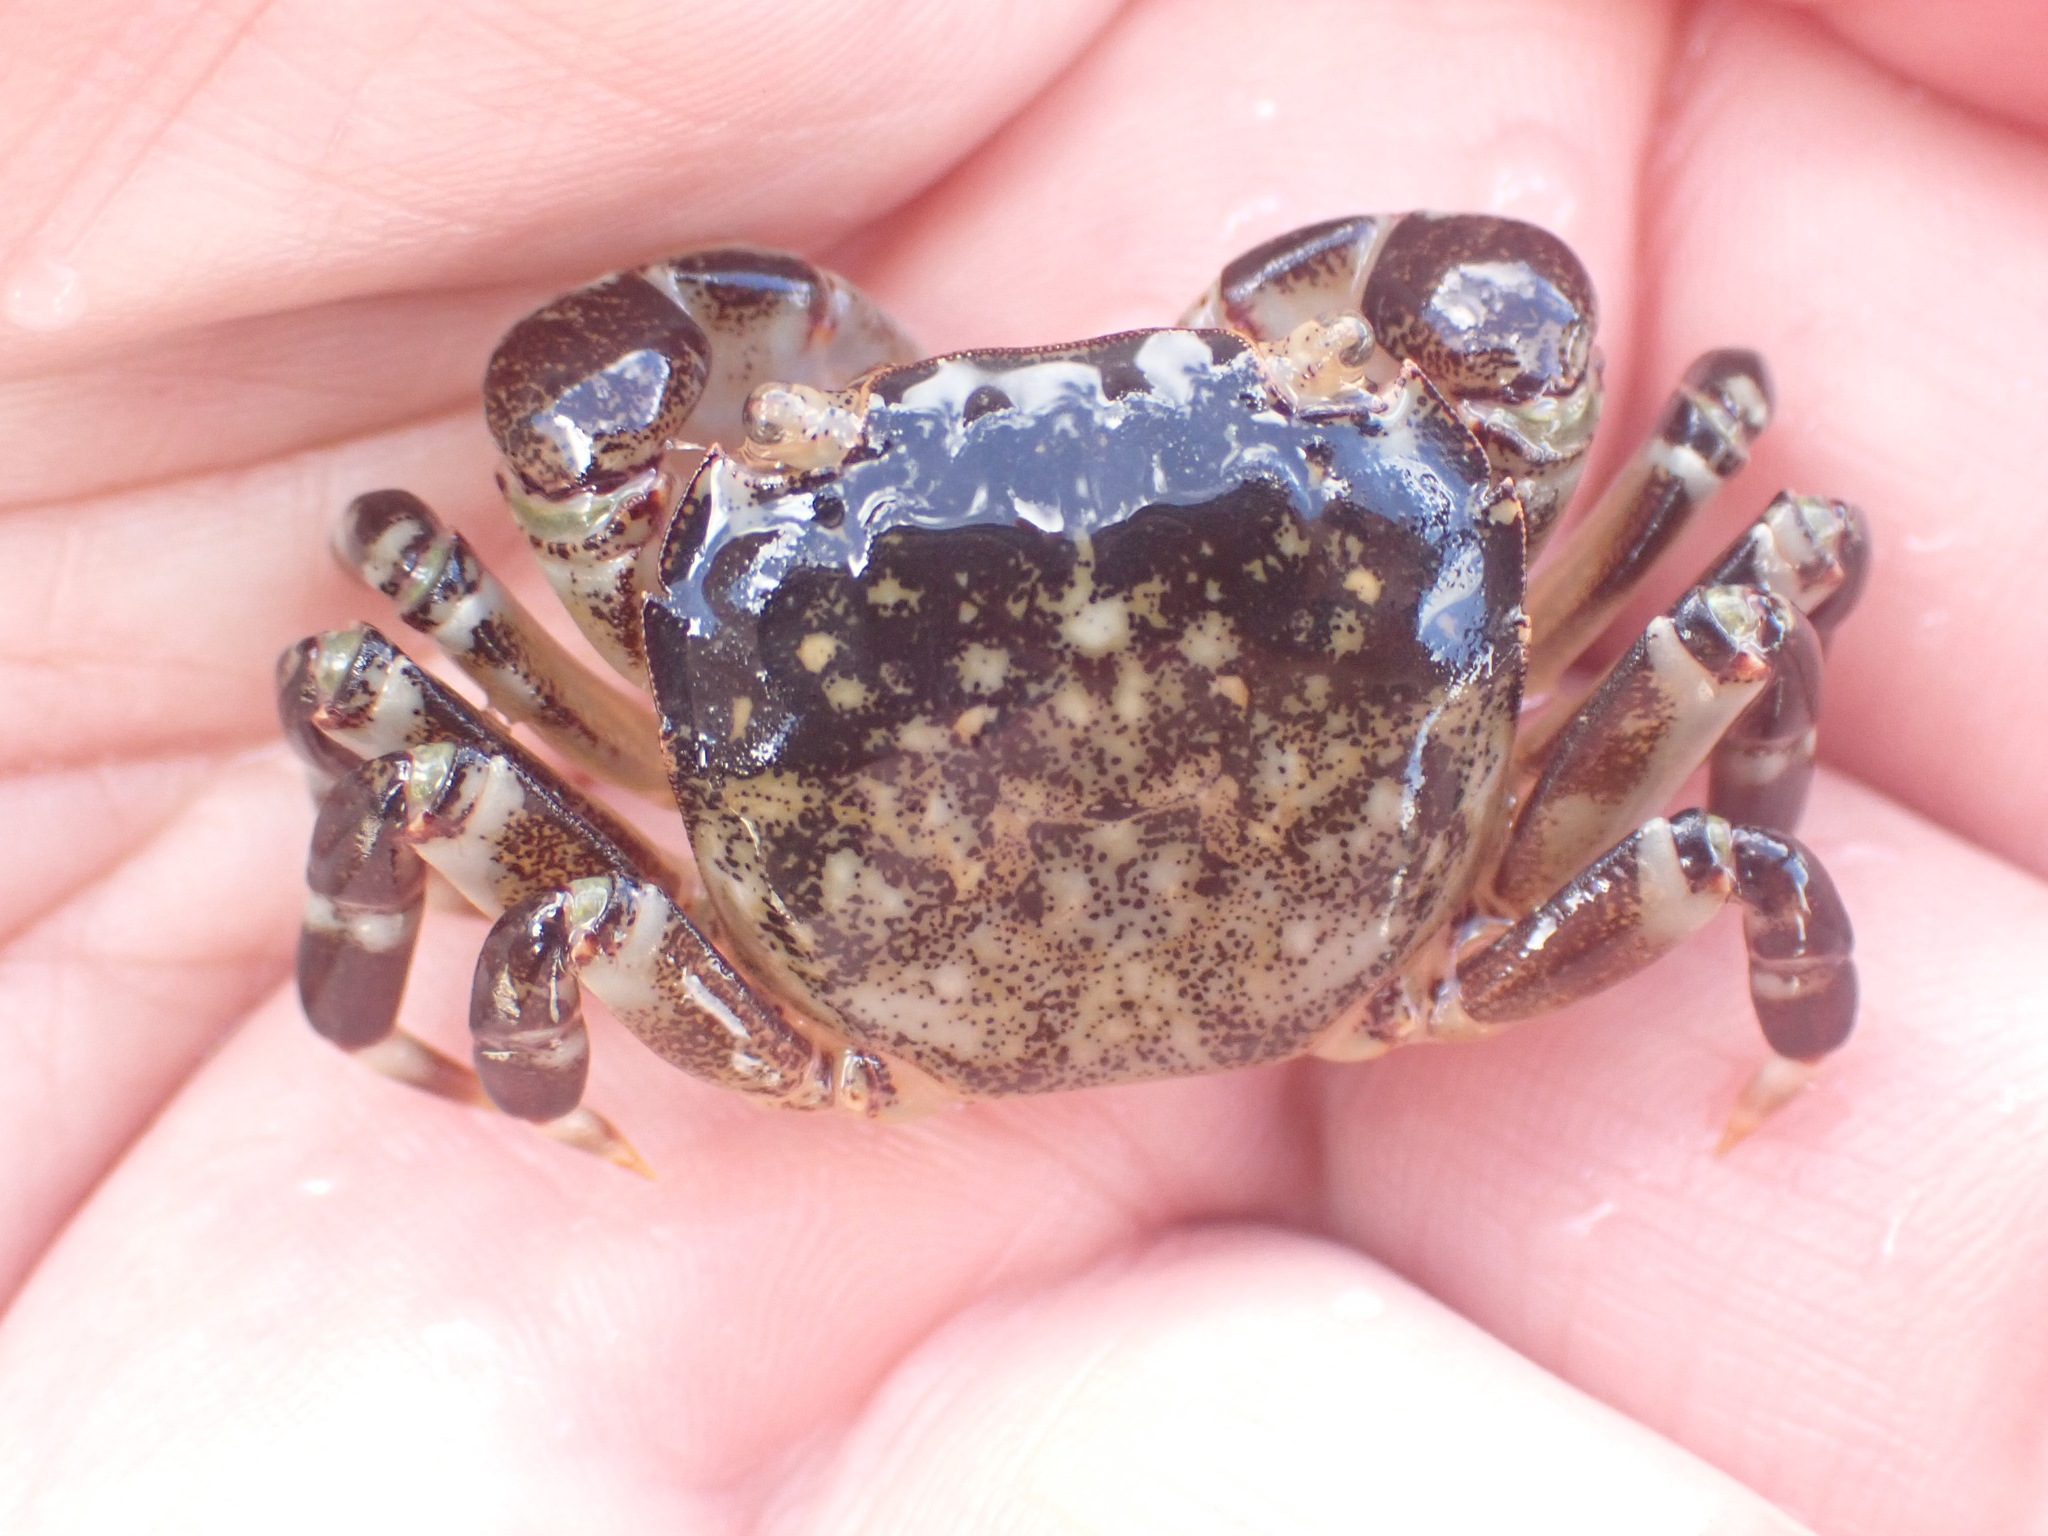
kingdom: Animalia
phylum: Arthropoda
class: Malacostraca
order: Decapoda
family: Varunidae
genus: Hemigrapsus
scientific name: Hemigrapsus sexdentatus
